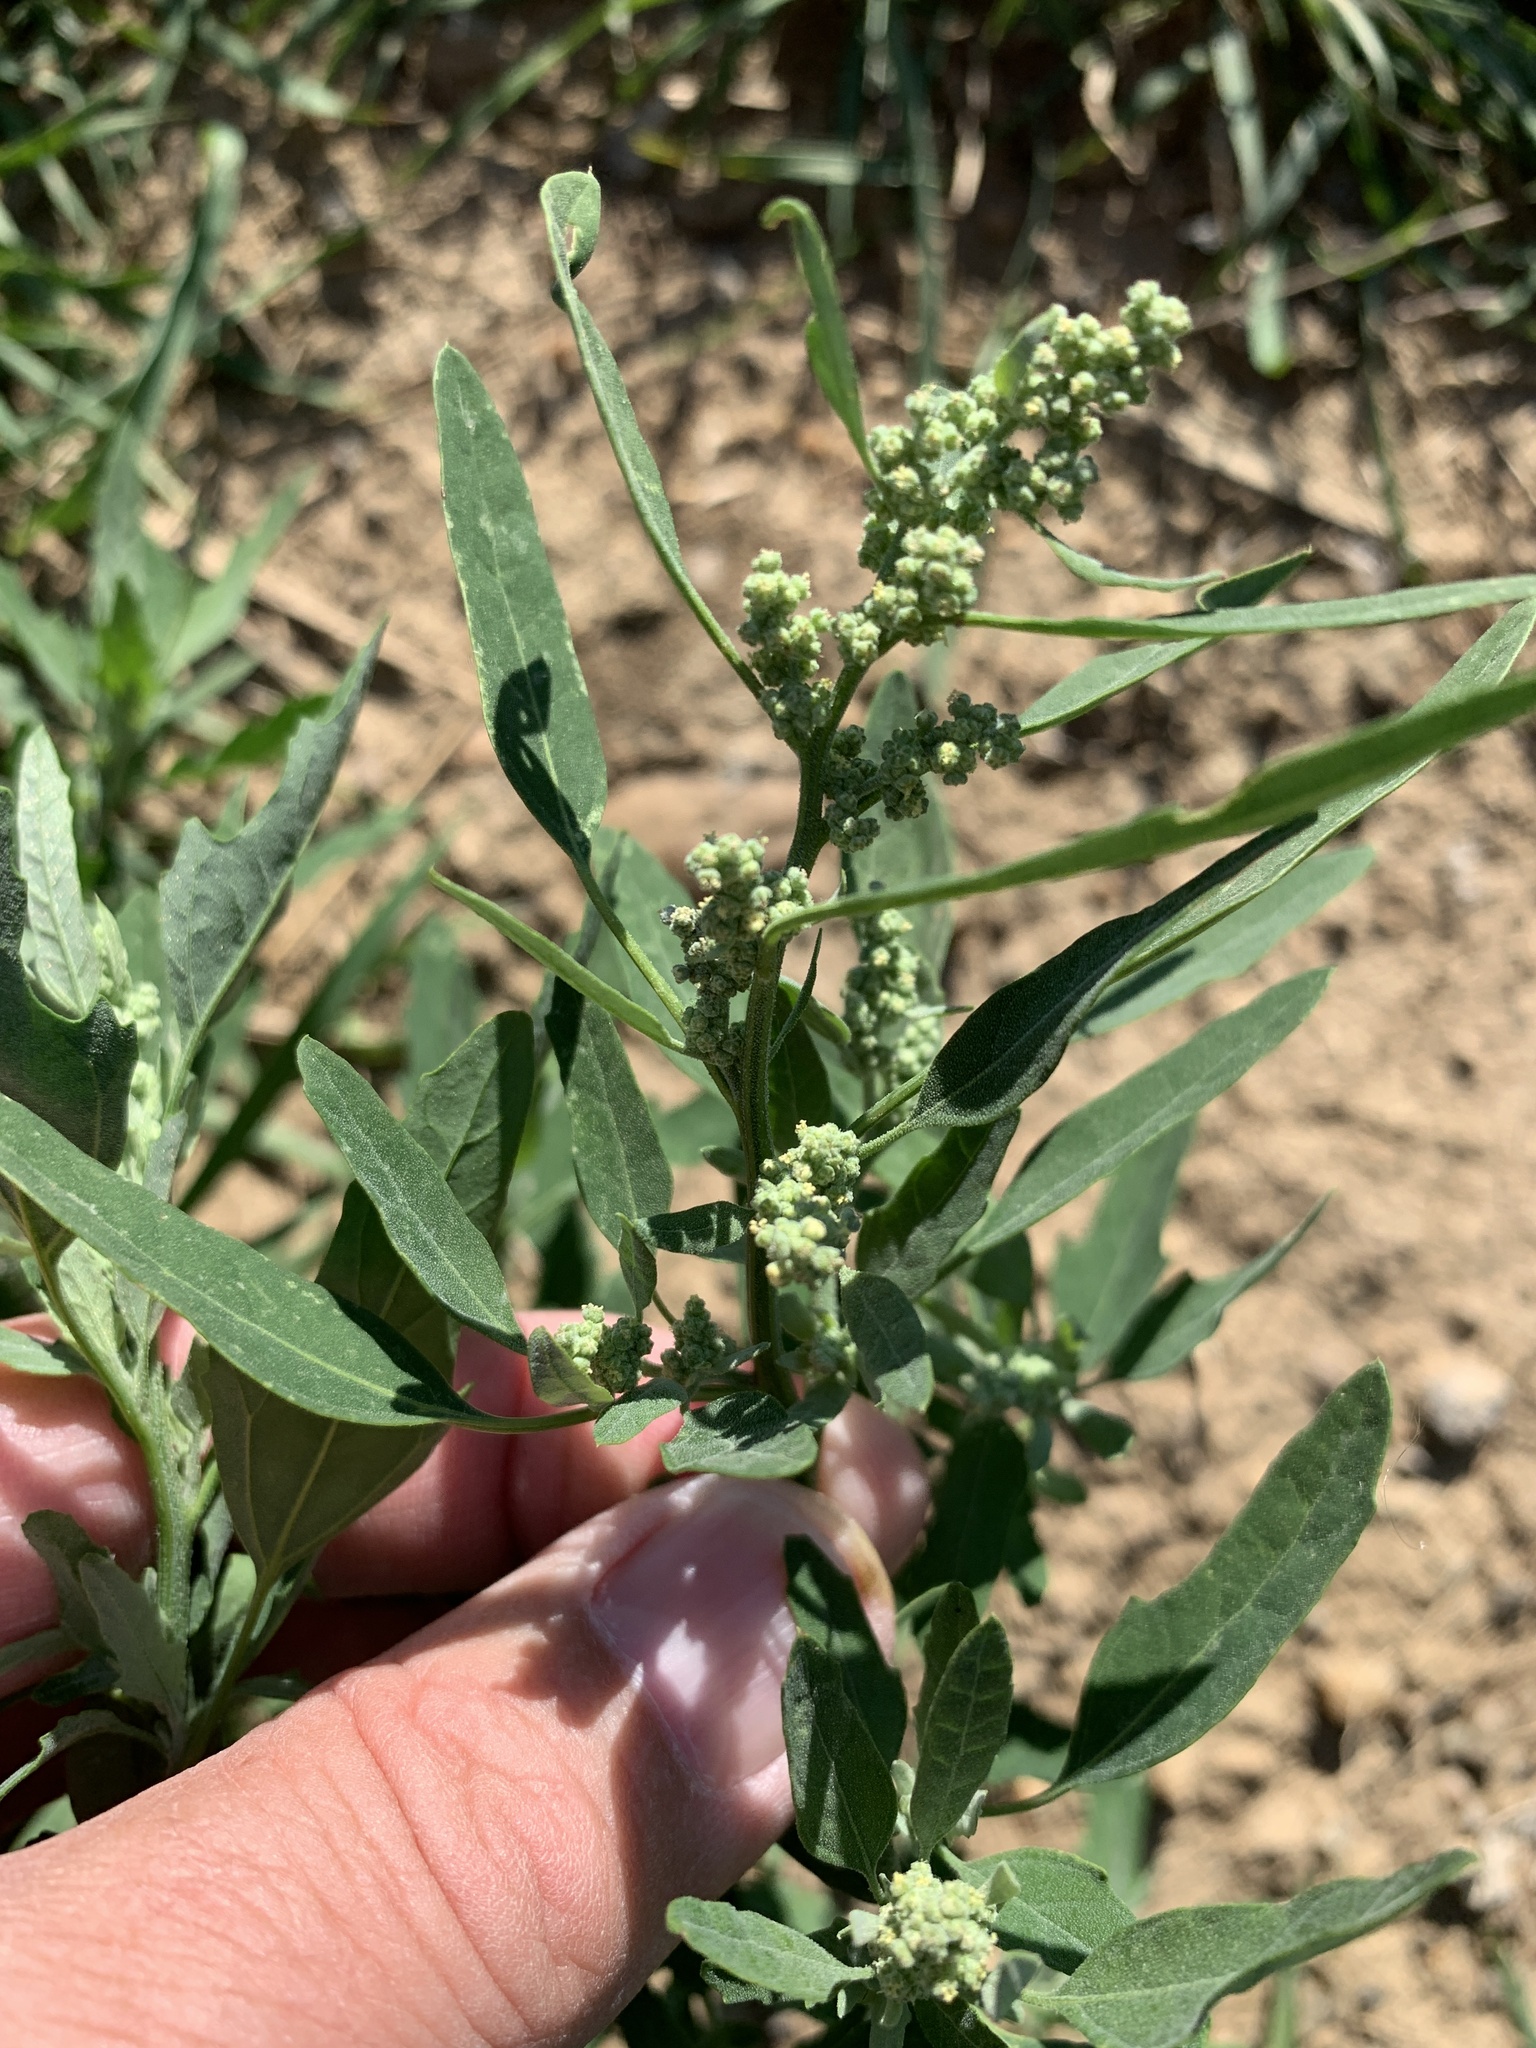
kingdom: Plantae
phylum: Tracheophyta
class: Magnoliopsida
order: Caryophyllales
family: Amaranthaceae
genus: Chenopodium
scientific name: Chenopodium album
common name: Fat-hen
